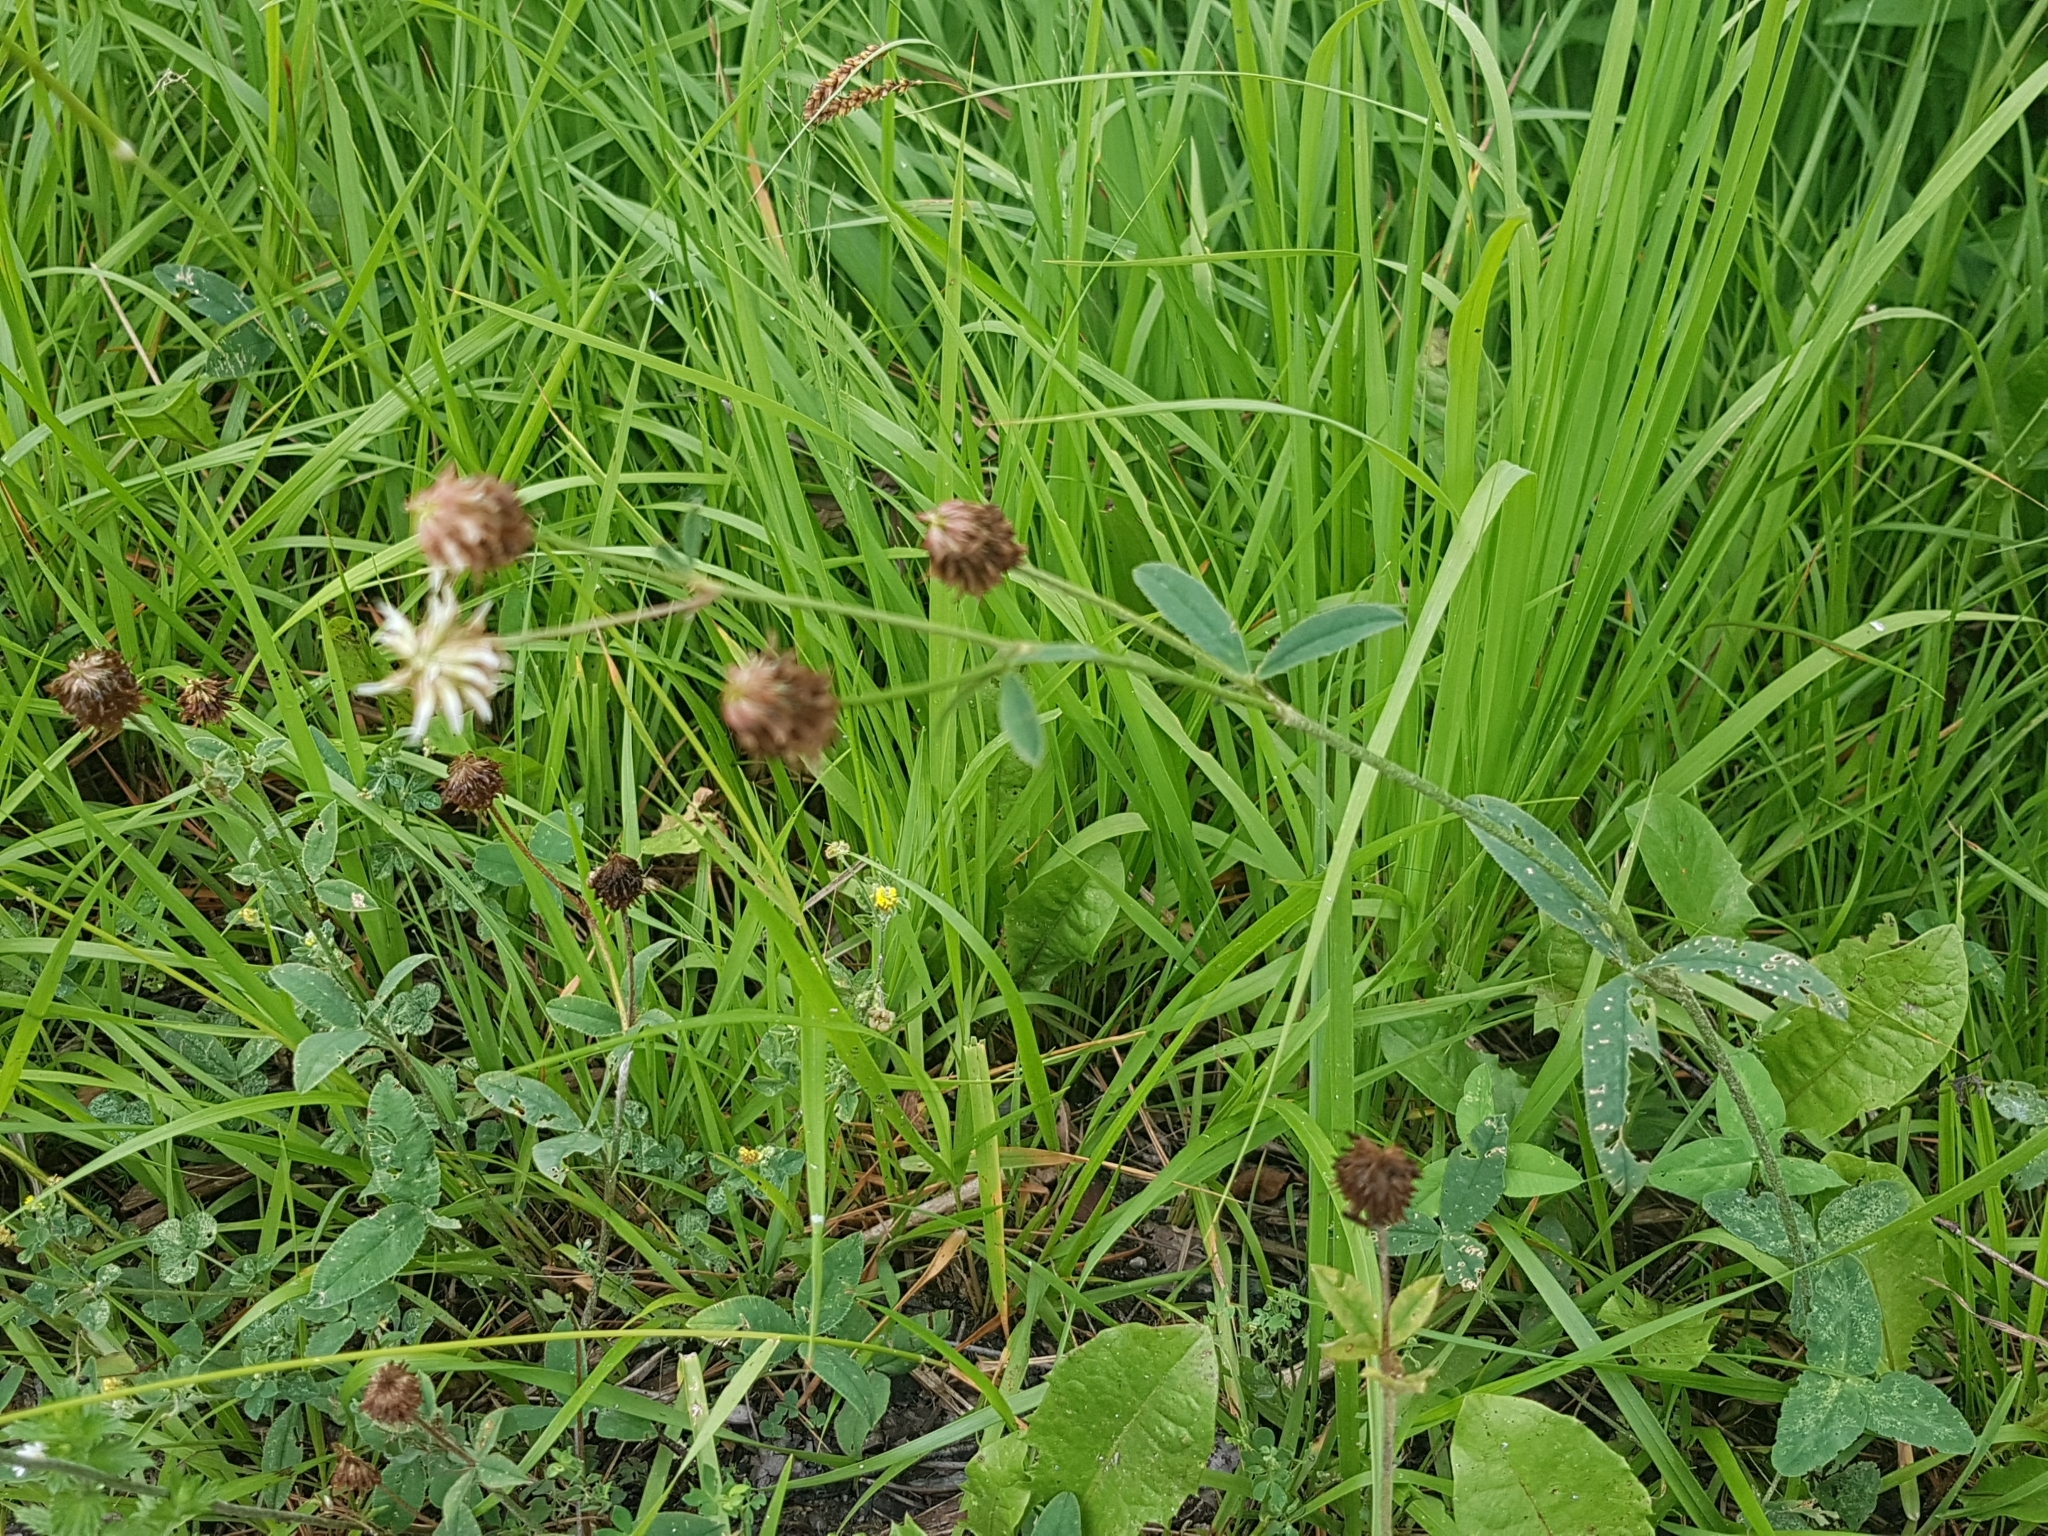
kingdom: Plantae
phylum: Tracheophyta
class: Magnoliopsida
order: Fabales
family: Fabaceae
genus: Trifolium
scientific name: Trifolium montanum
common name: Mountain clover
